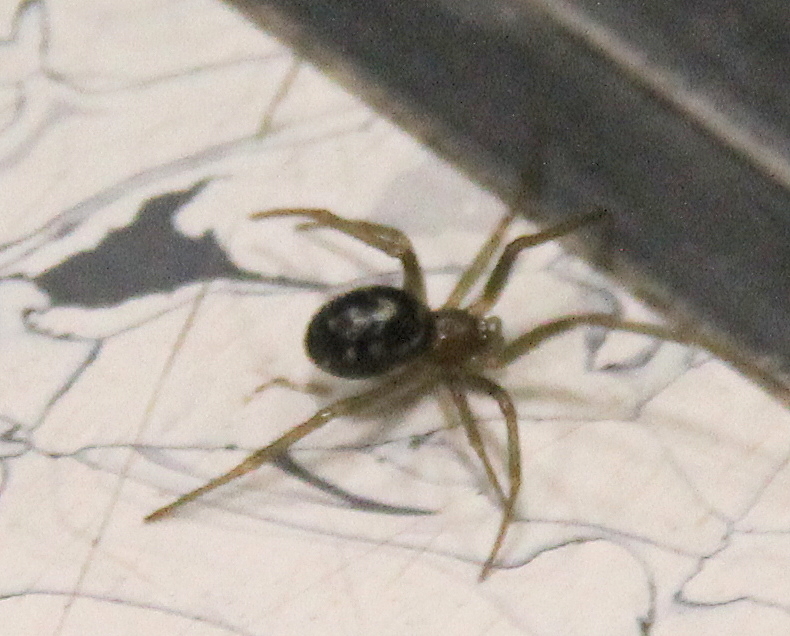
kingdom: Animalia
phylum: Arthropoda
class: Arachnida
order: Araneae
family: Theridiidae
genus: Steatoda
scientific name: Steatoda grossa
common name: False black widow
